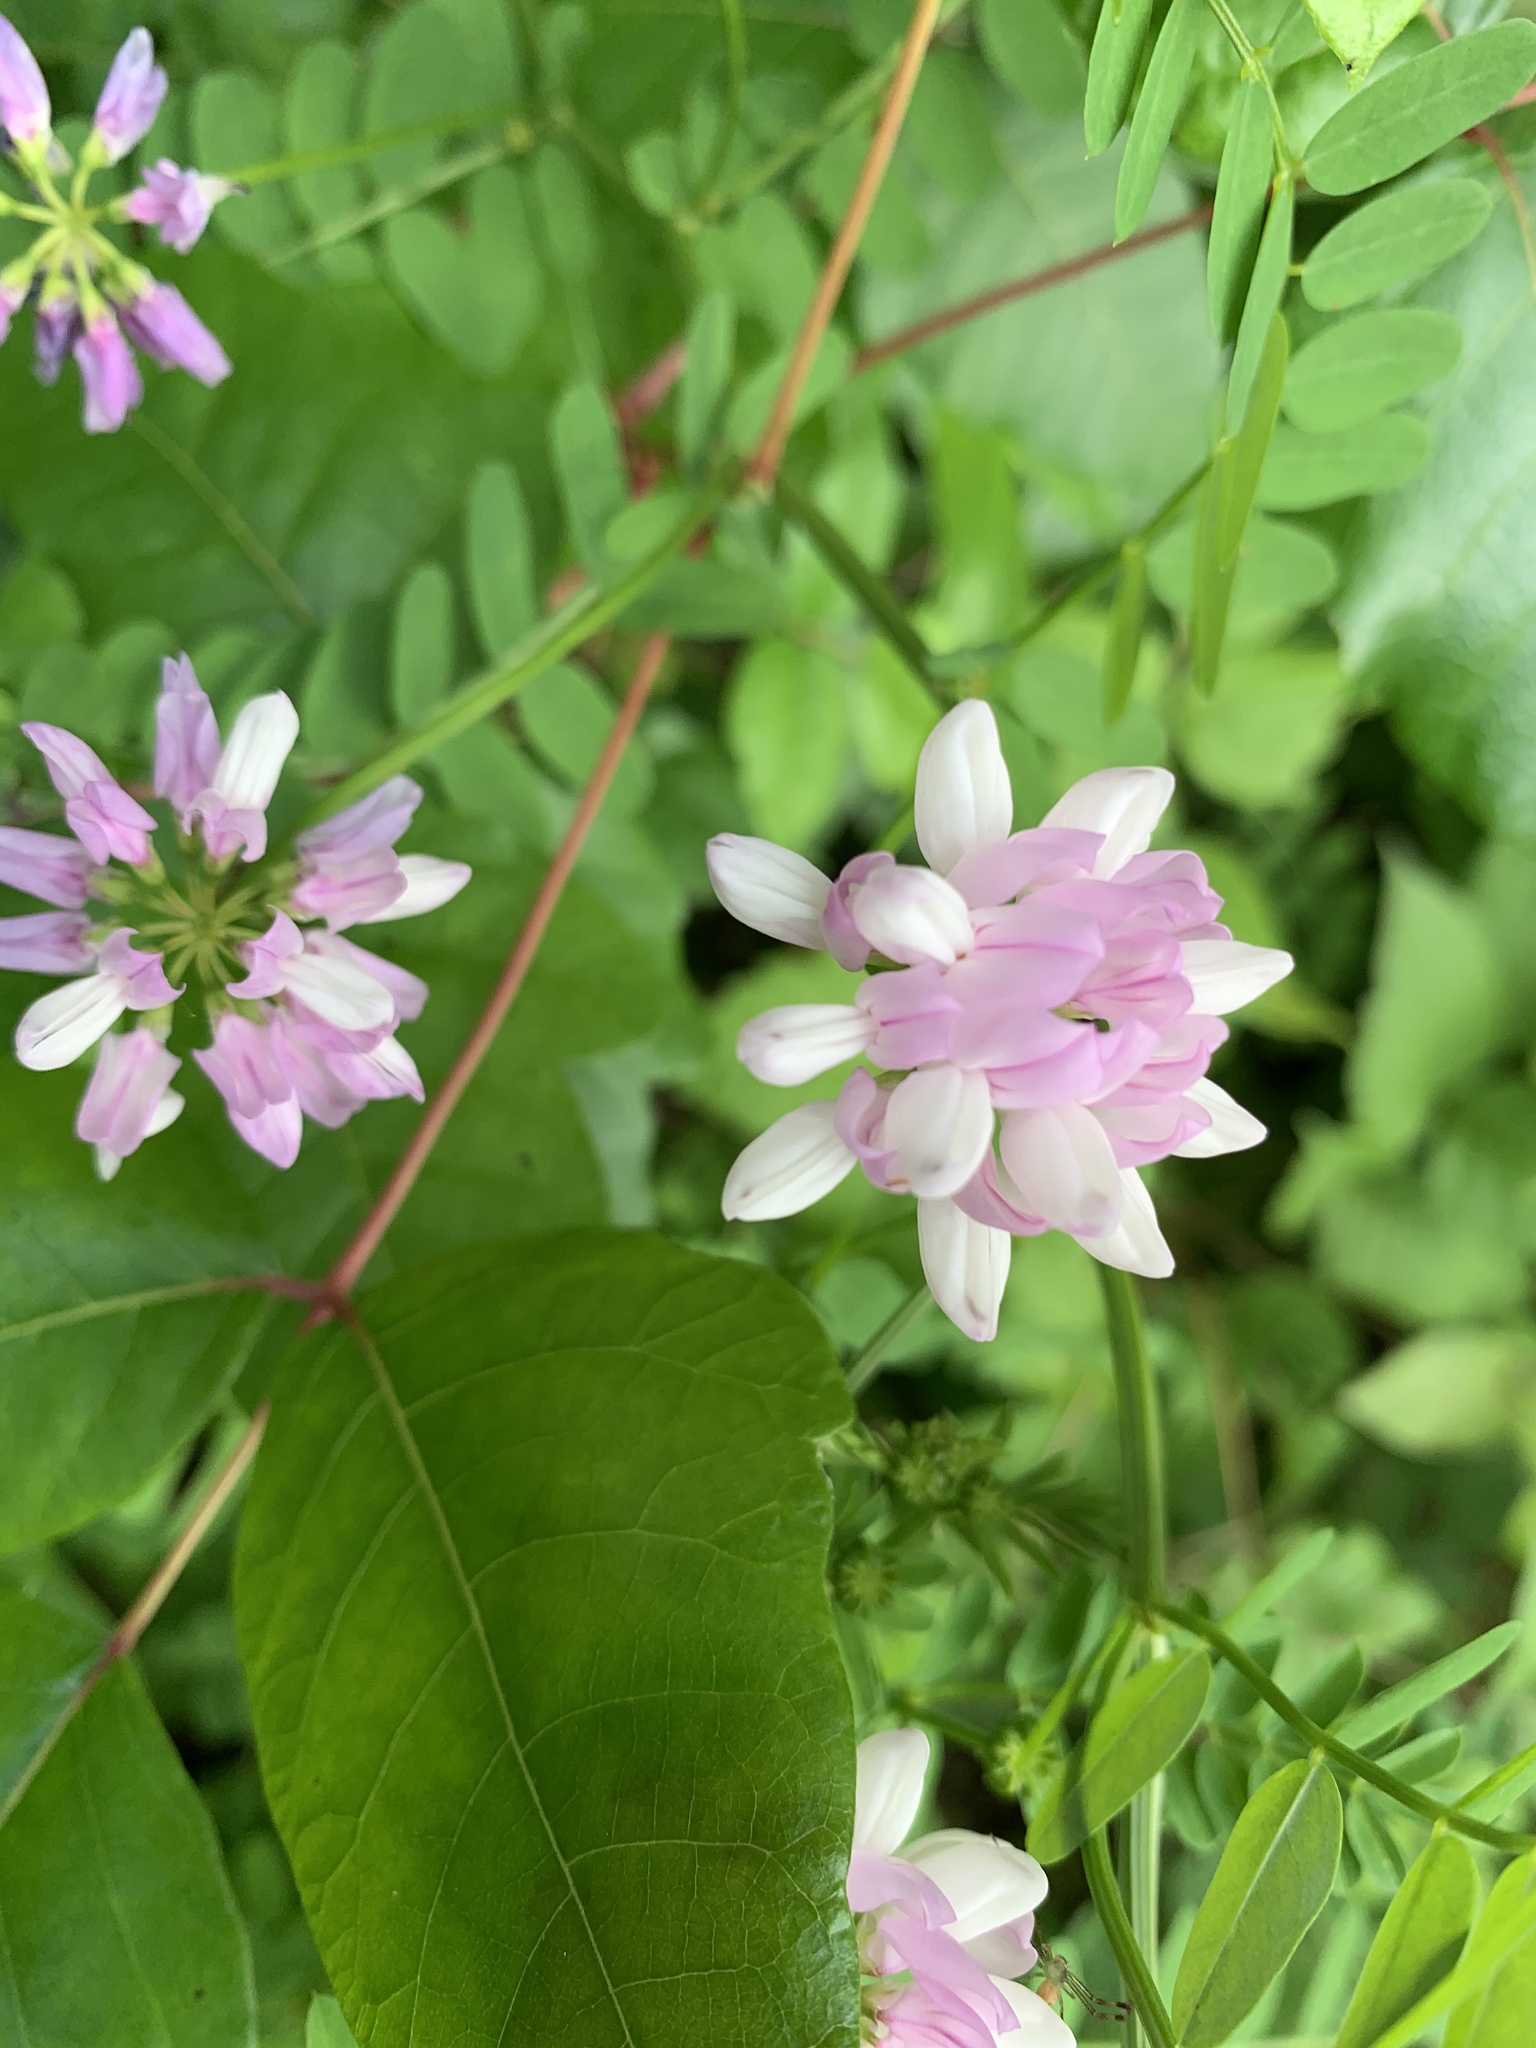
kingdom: Plantae
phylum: Tracheophyta
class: Magnoliopsida
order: Fabales
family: Fabaceae
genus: Coronilla
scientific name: Coronilla varia
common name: Crownvetch
